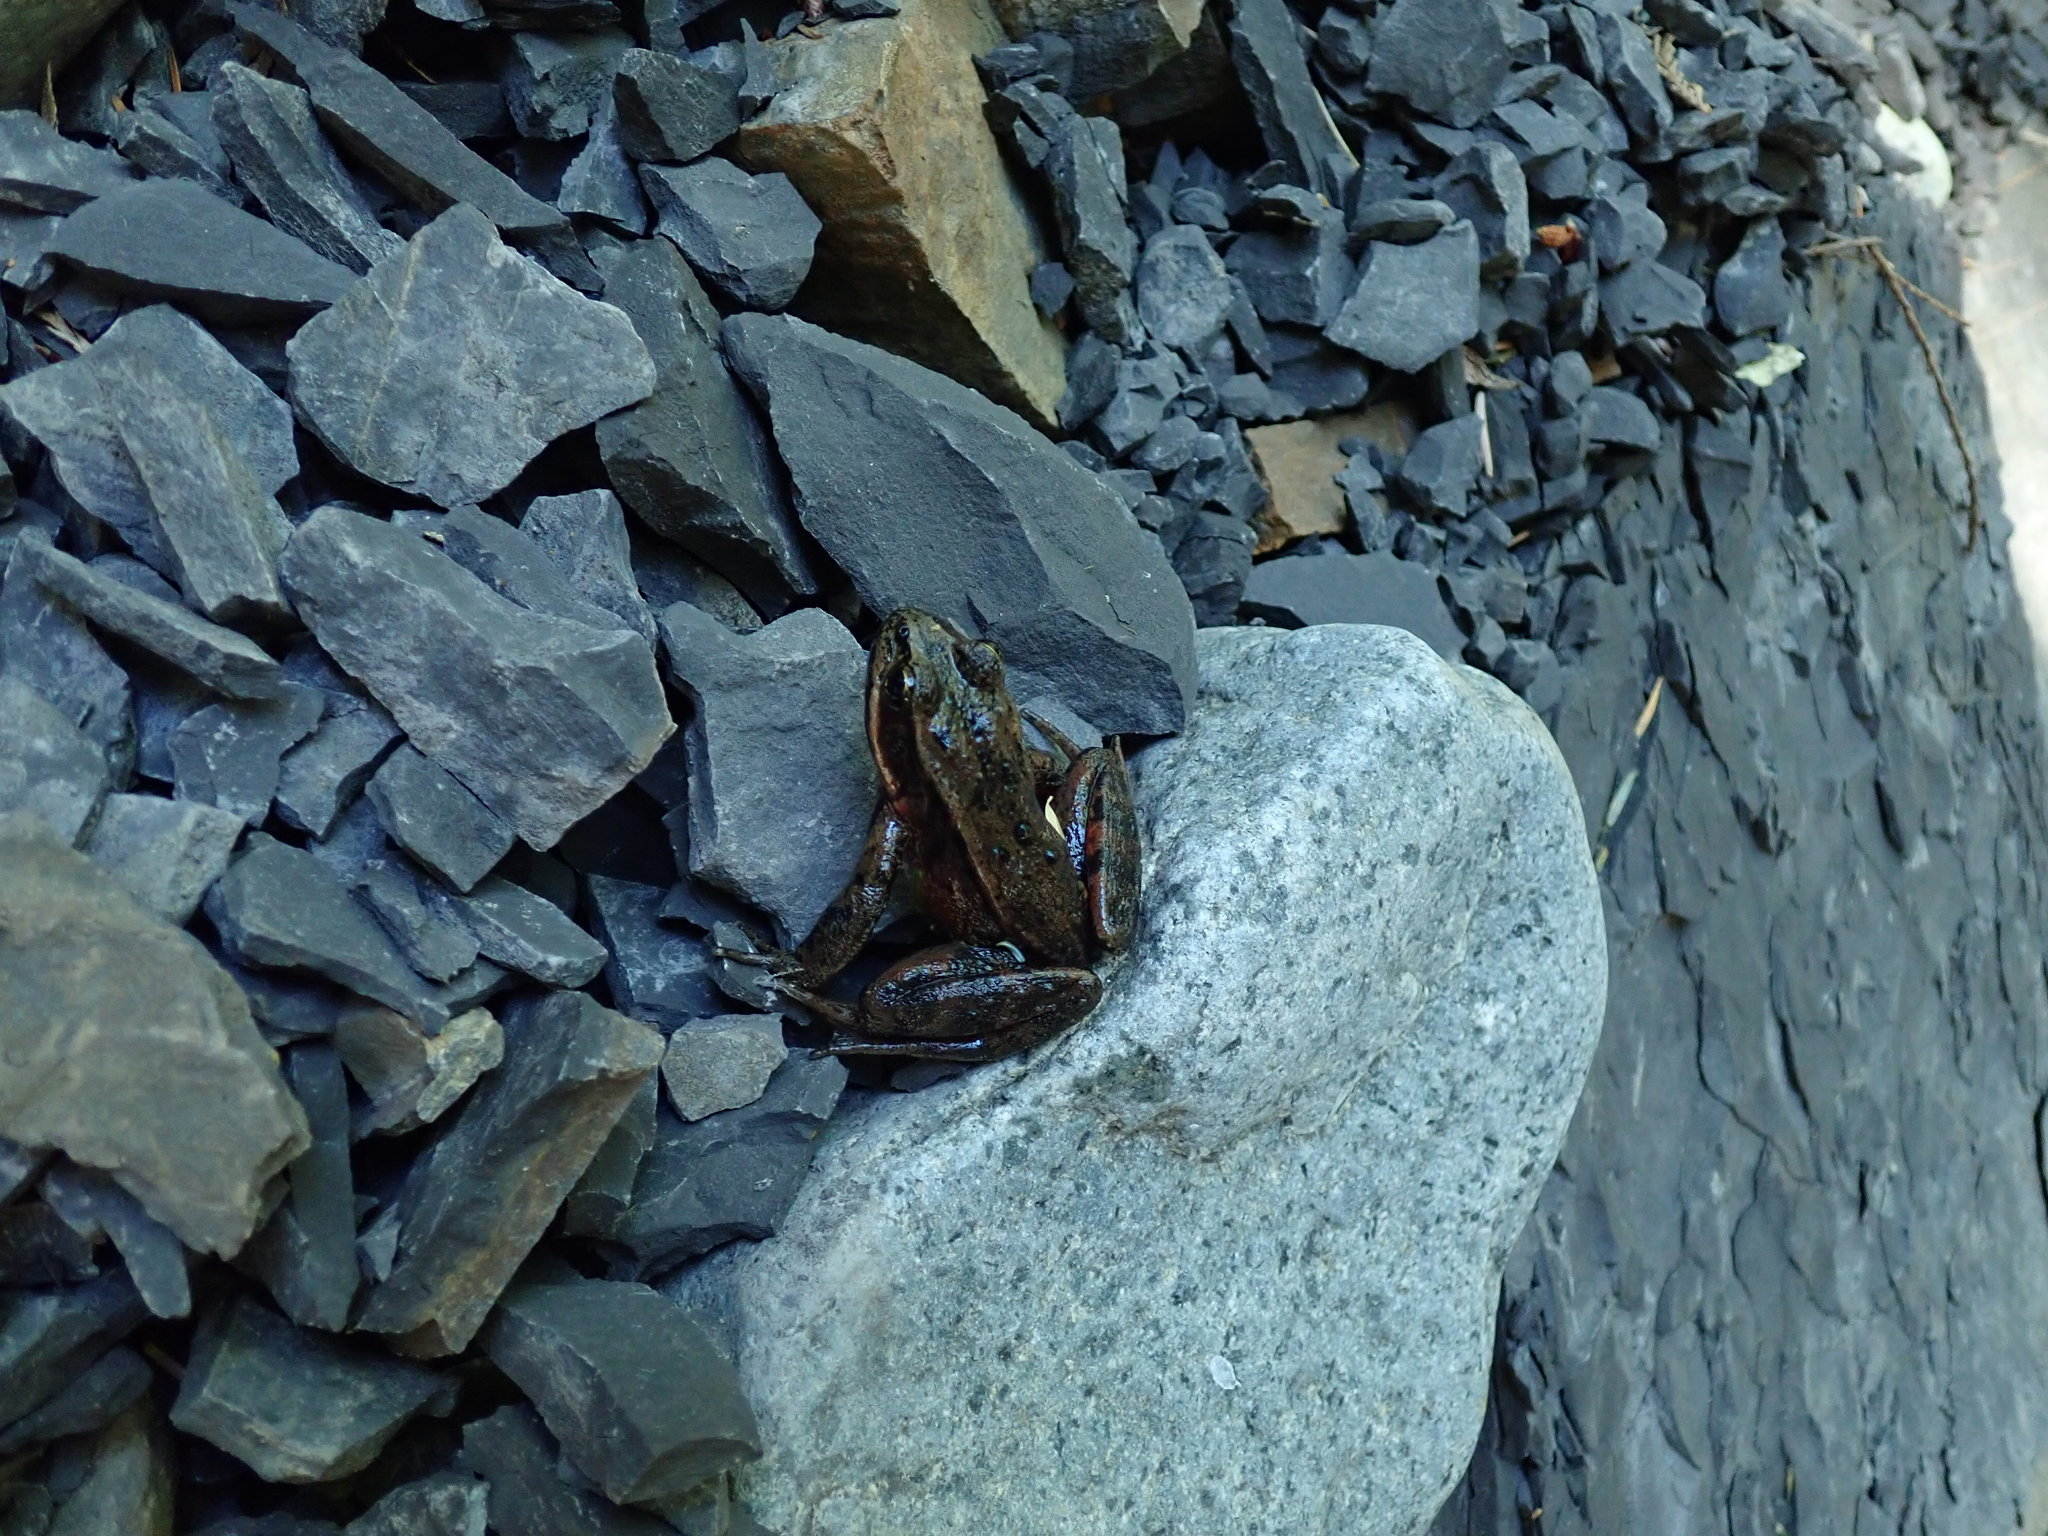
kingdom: Animalia
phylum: Chordata
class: Amphibia
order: Anura
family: Ranidae
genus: Rana
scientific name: Rana aurora
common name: Red-legged frog
